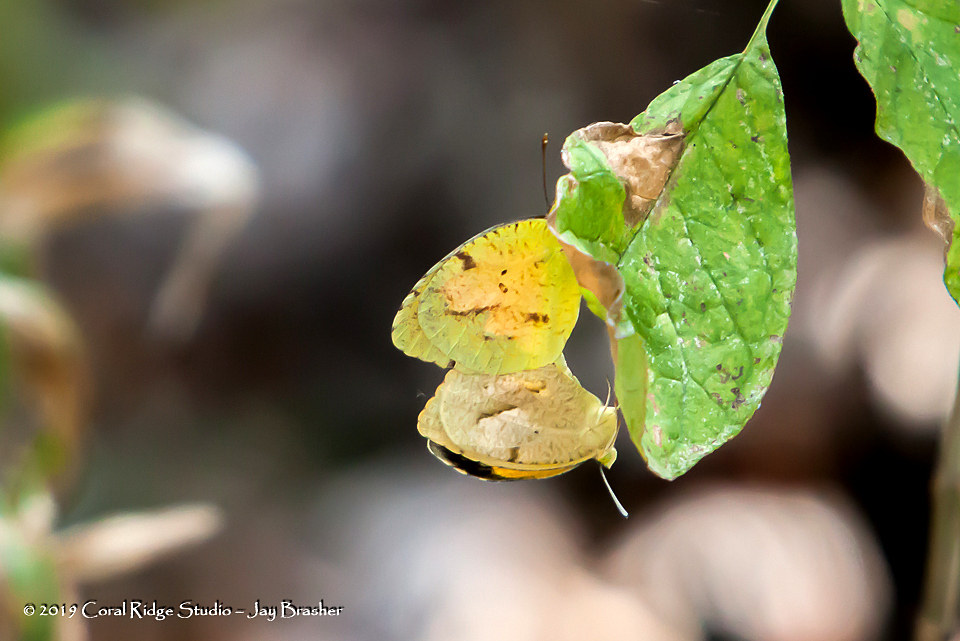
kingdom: Animalia
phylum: Arthropoda
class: Insecta
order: Lepidoptera
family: Pieridae
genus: Abaeis
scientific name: Abaeis nicippe
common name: Sleepy orange
